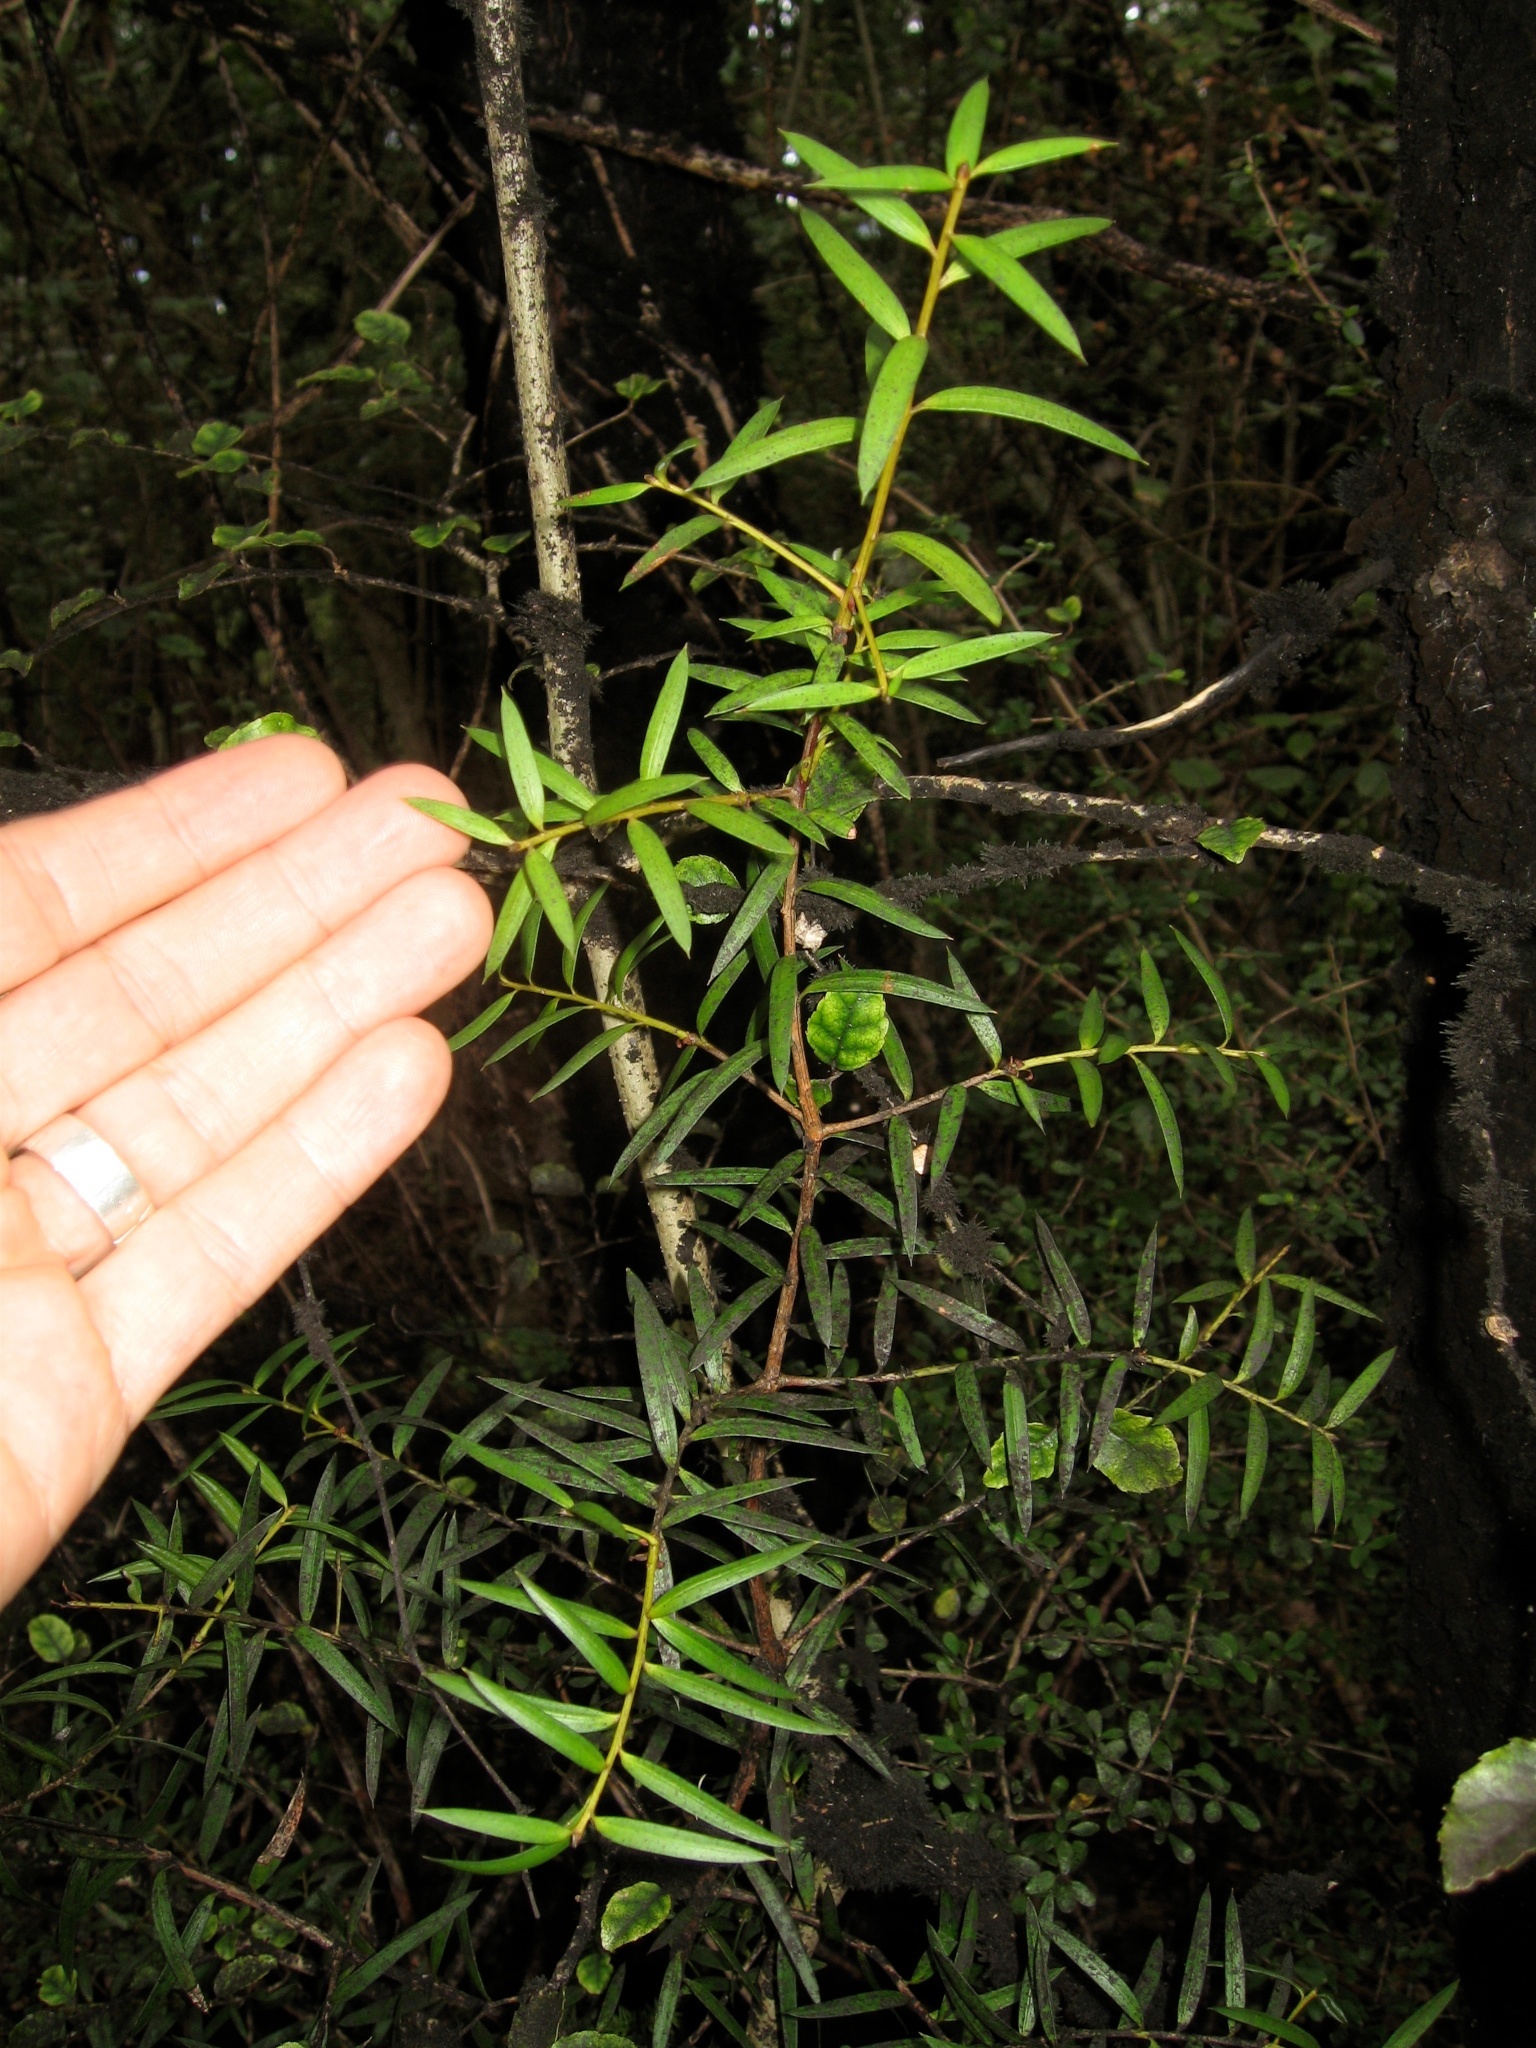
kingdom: Plantae
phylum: Tracheophyta
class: Pinopsida
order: Pinales
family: Podocarpaceae
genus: Podocarpus
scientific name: Podocarpus laetus
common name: Hall's totara
